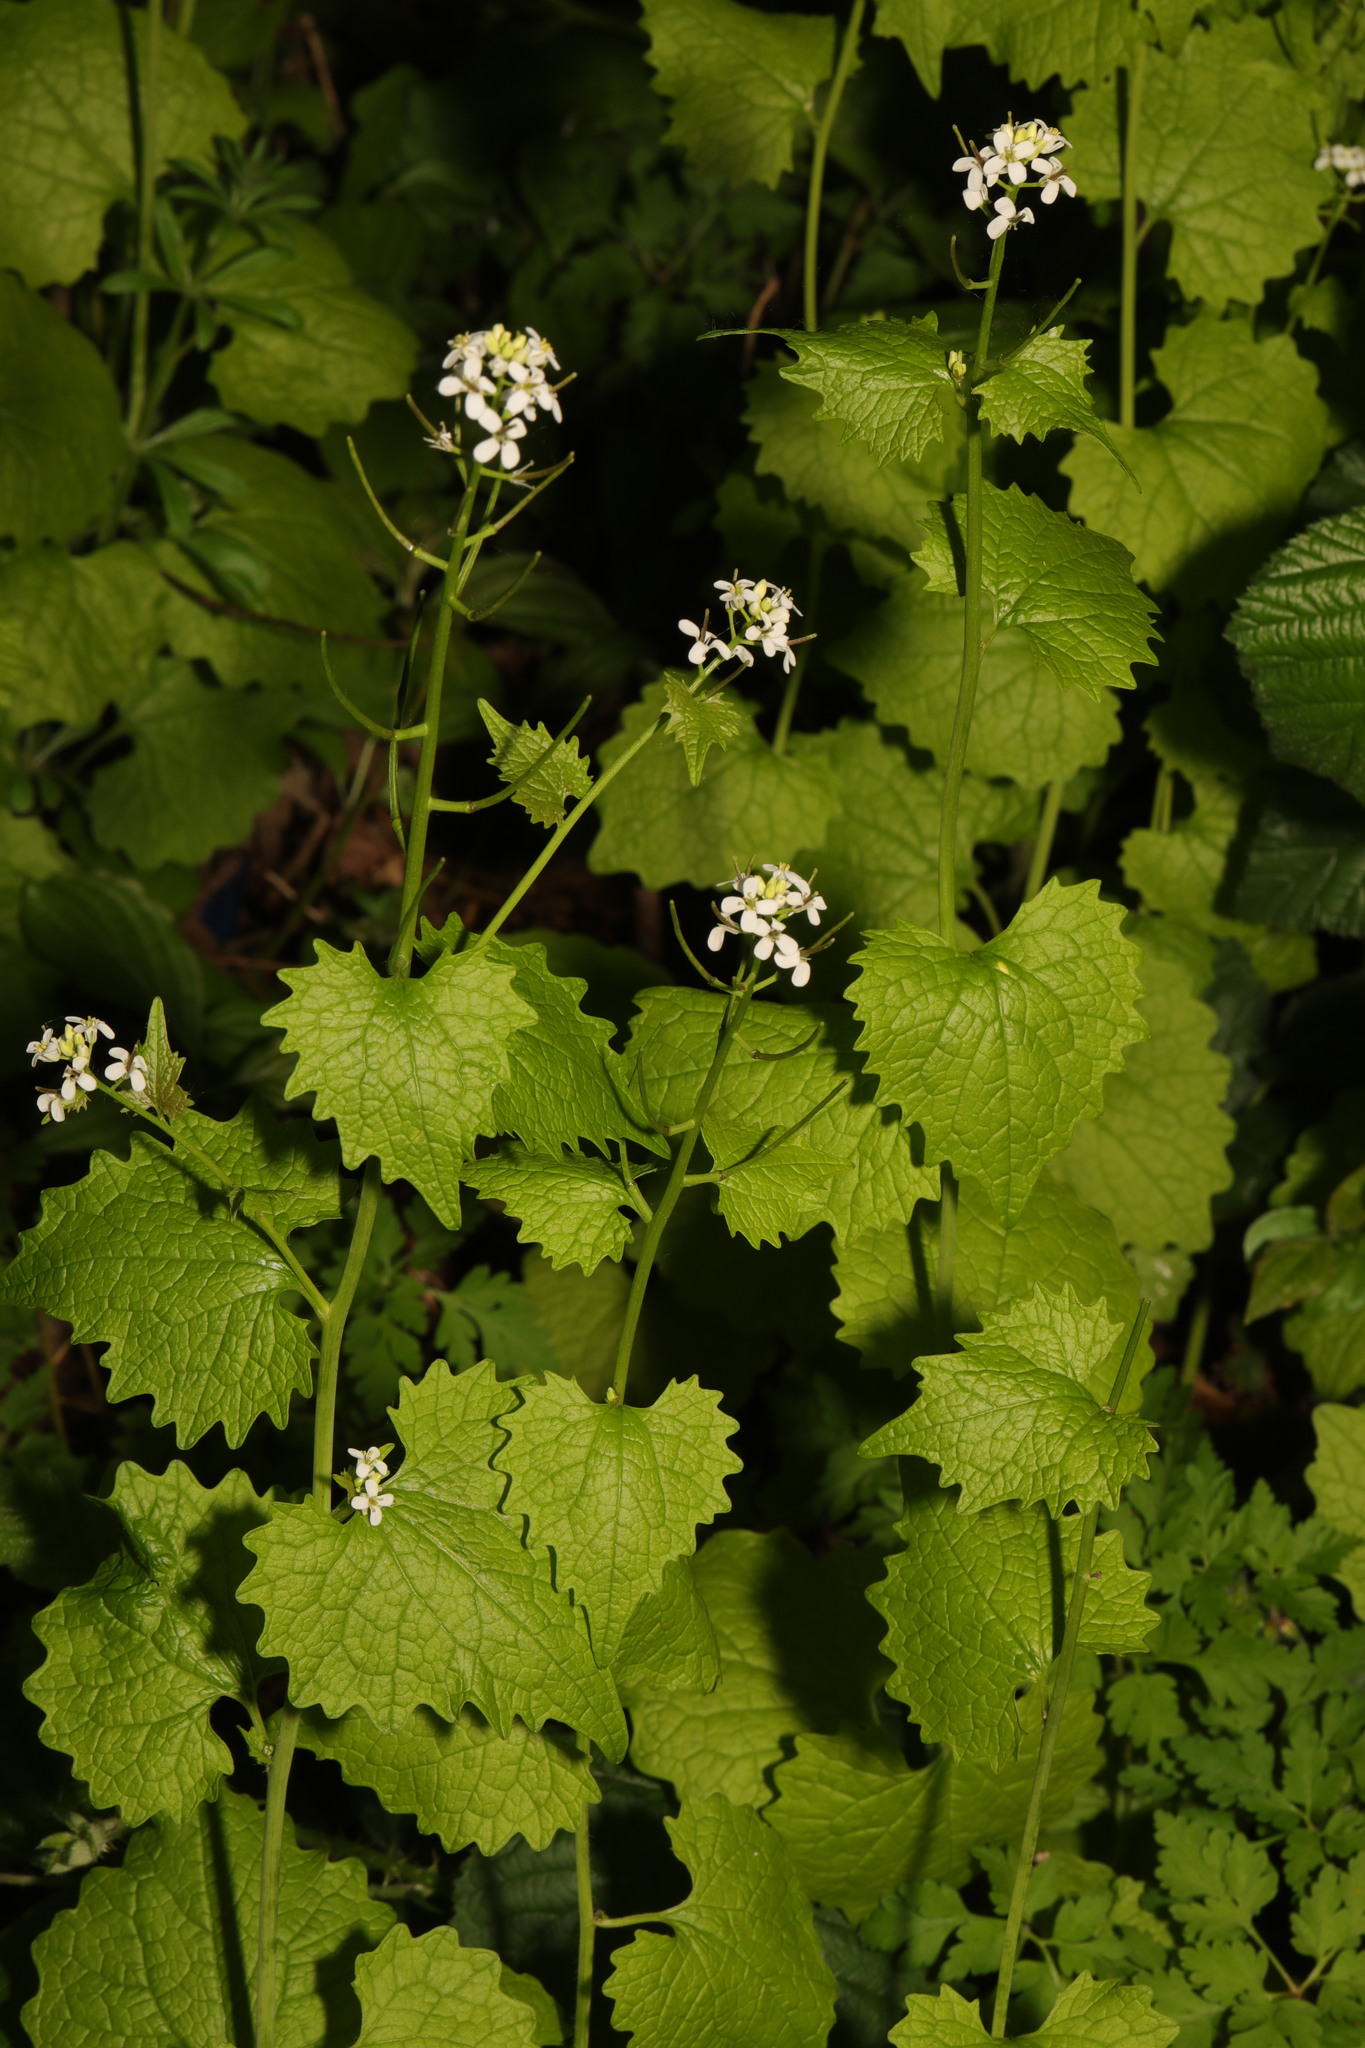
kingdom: Plantae
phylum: Tracheophyta
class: Magnoliopsida
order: Brassicales
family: Brassicaceae
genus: Alliaria
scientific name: Alliaria petiolata
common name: Garlic mustard
